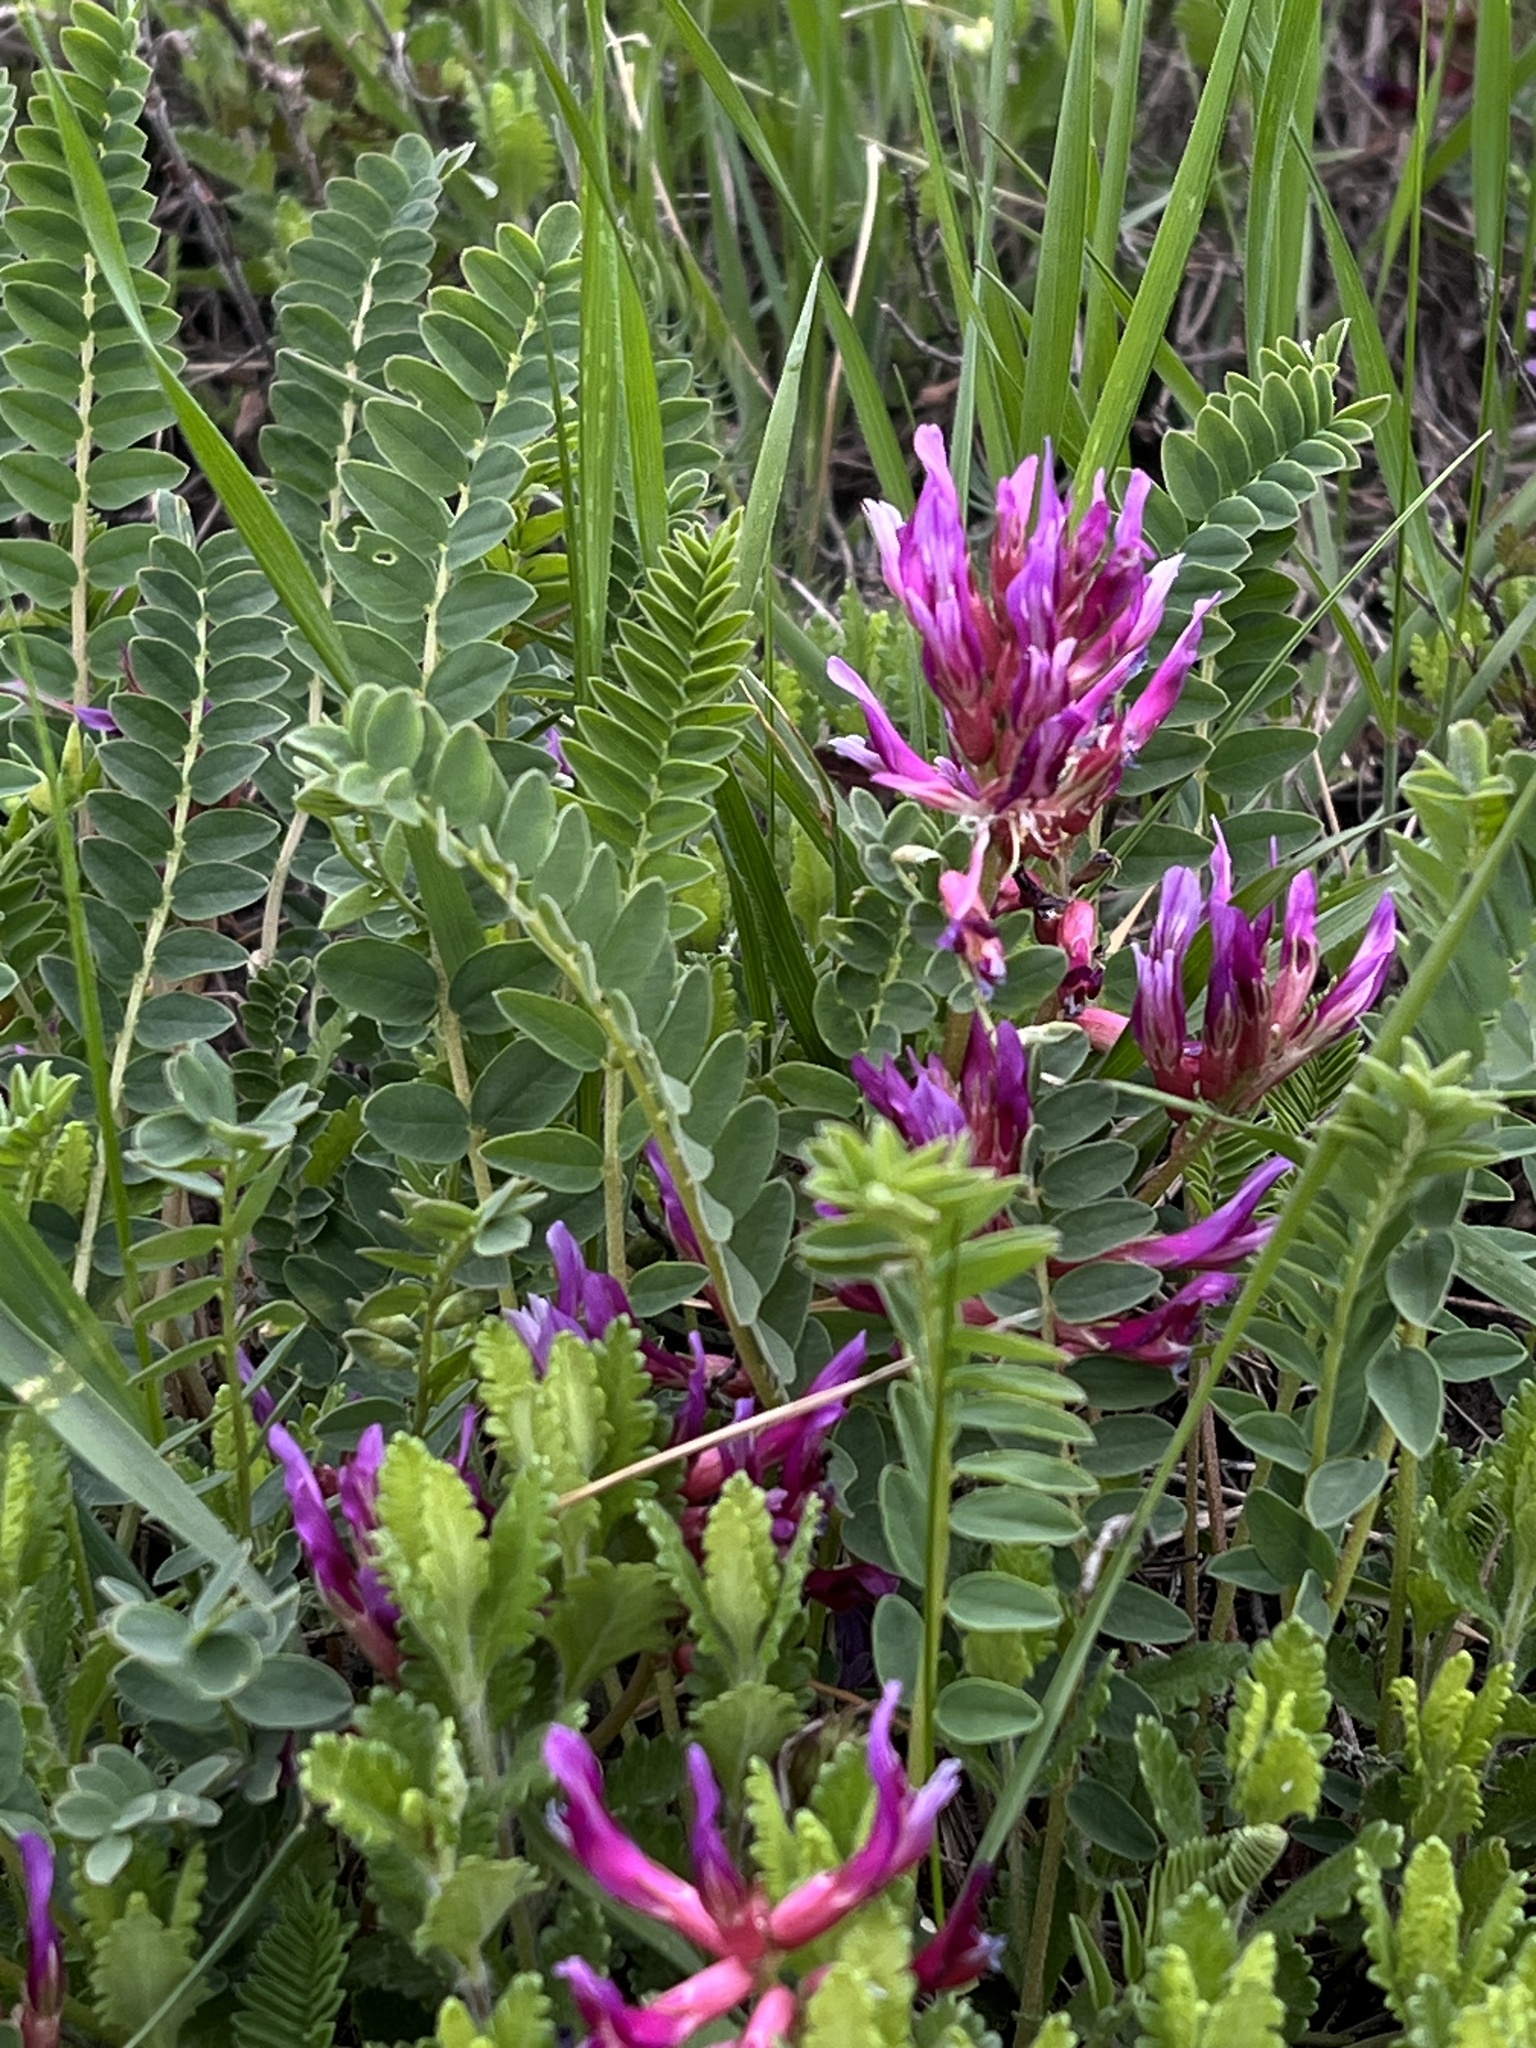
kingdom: Plantae
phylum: Tracheophyta
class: Magnoliopsida
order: Fabales
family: Fabaceae
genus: Astragalus
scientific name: Astragalus monspessulanus
